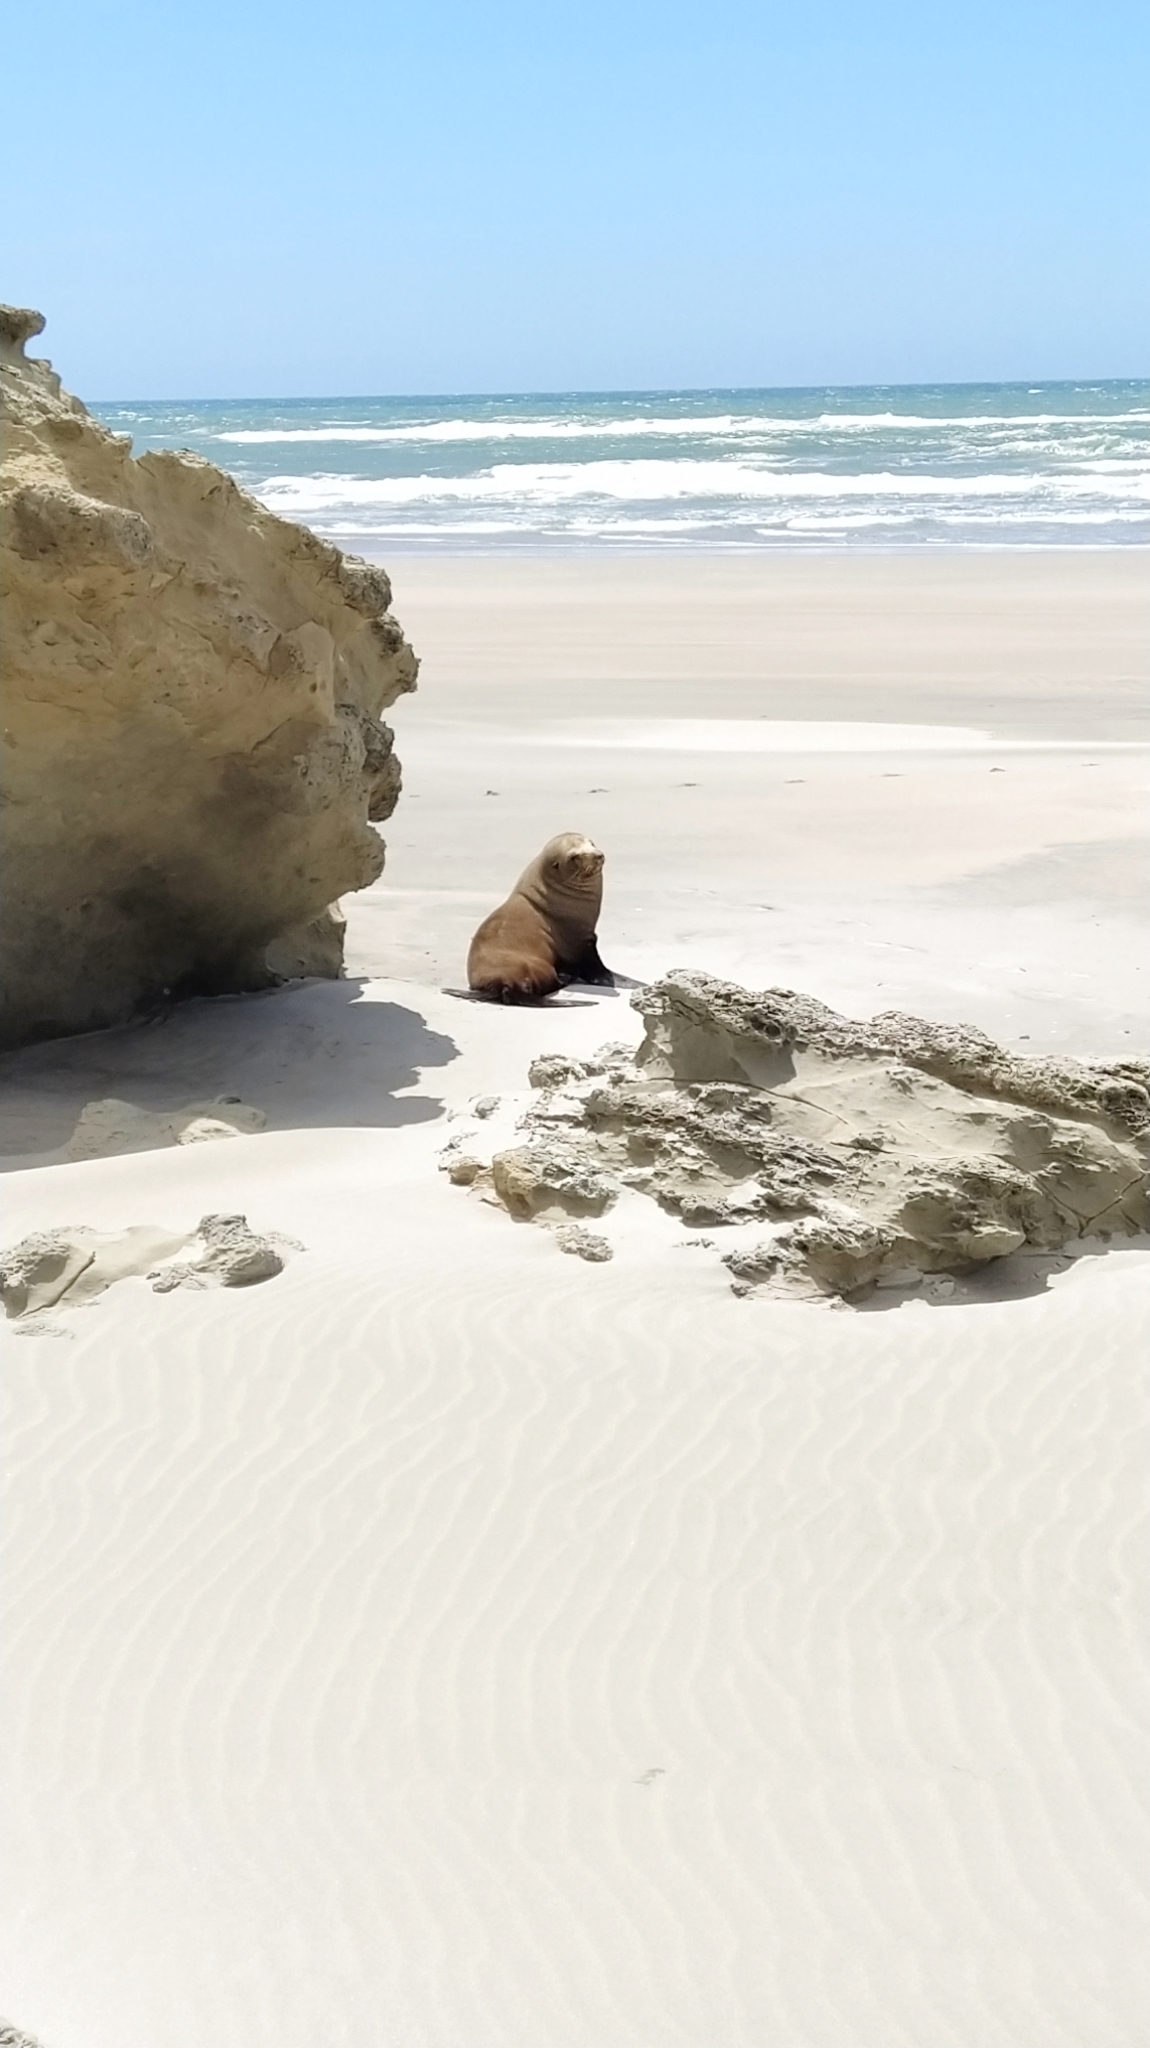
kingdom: Animalia
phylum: Chordata
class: Mammalia
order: Carnivora
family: Otariidae
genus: Arctocephalus
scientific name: Arctocephalus forsteri
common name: New zealand fur seal
